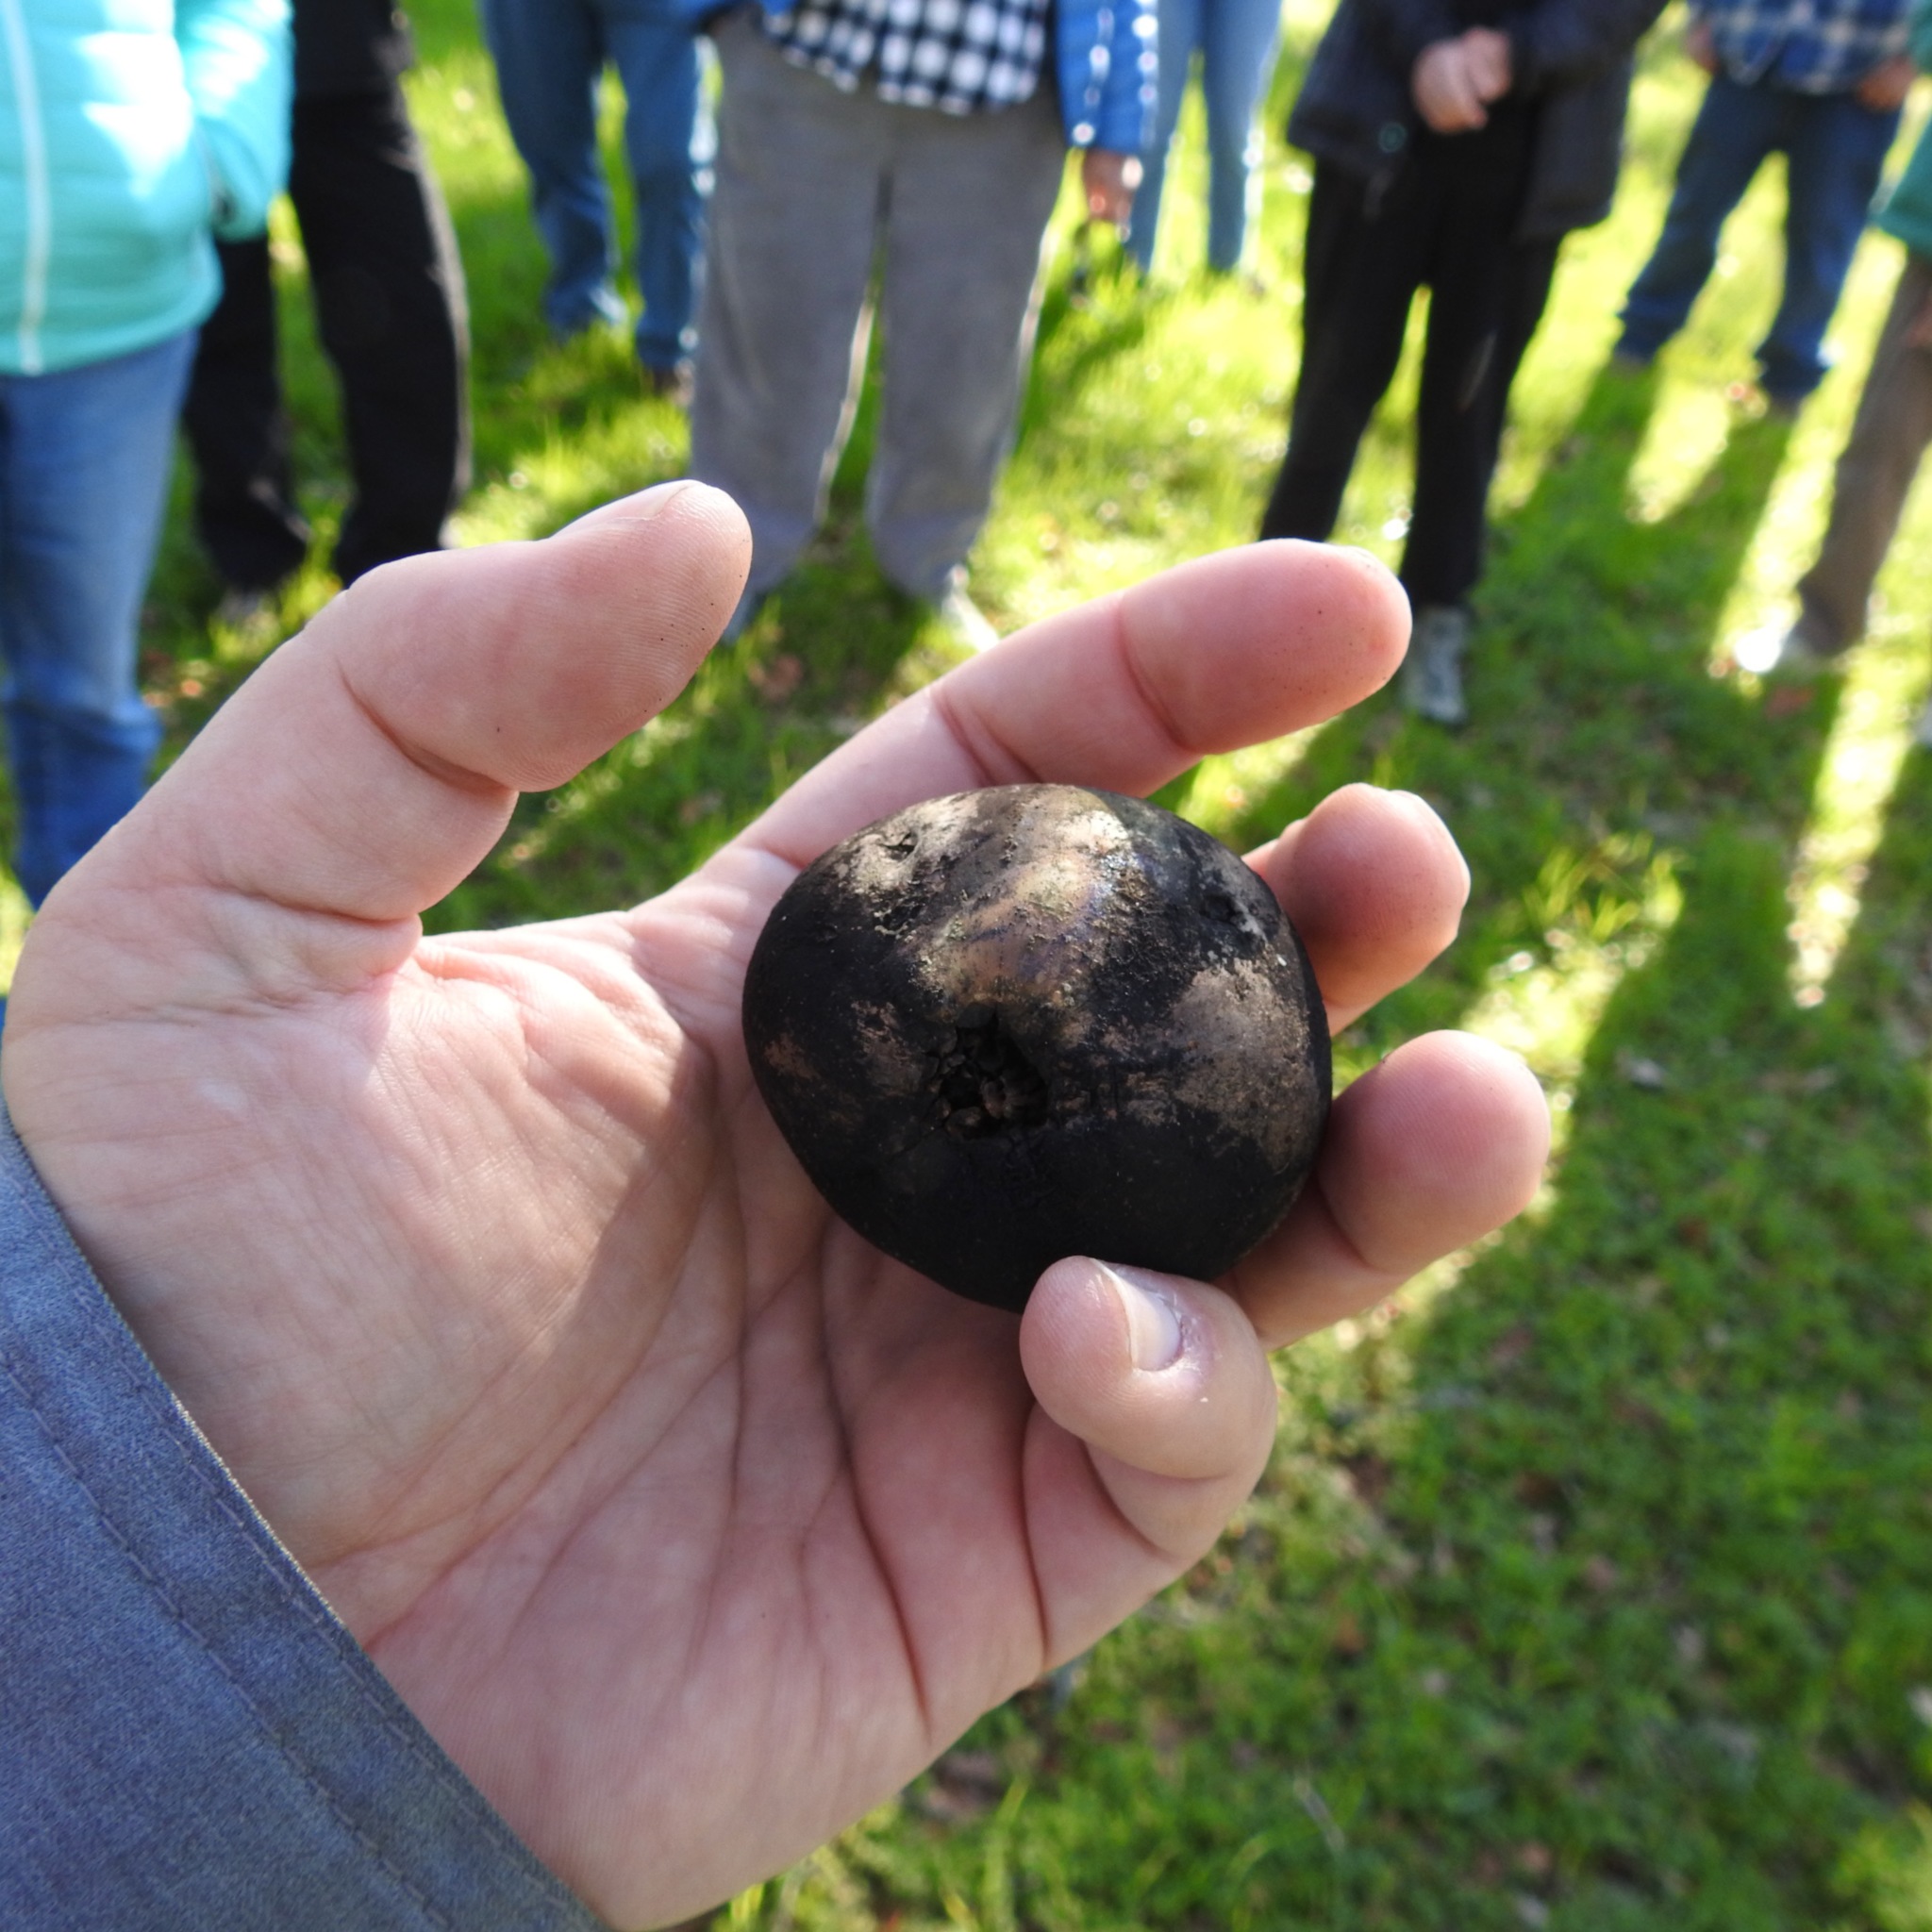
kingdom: Animalia
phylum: Arthropoda
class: Insecta
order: Hymenoptera
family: Cynipidae
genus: Andricus
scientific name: Andricus quercuscalifornicus
